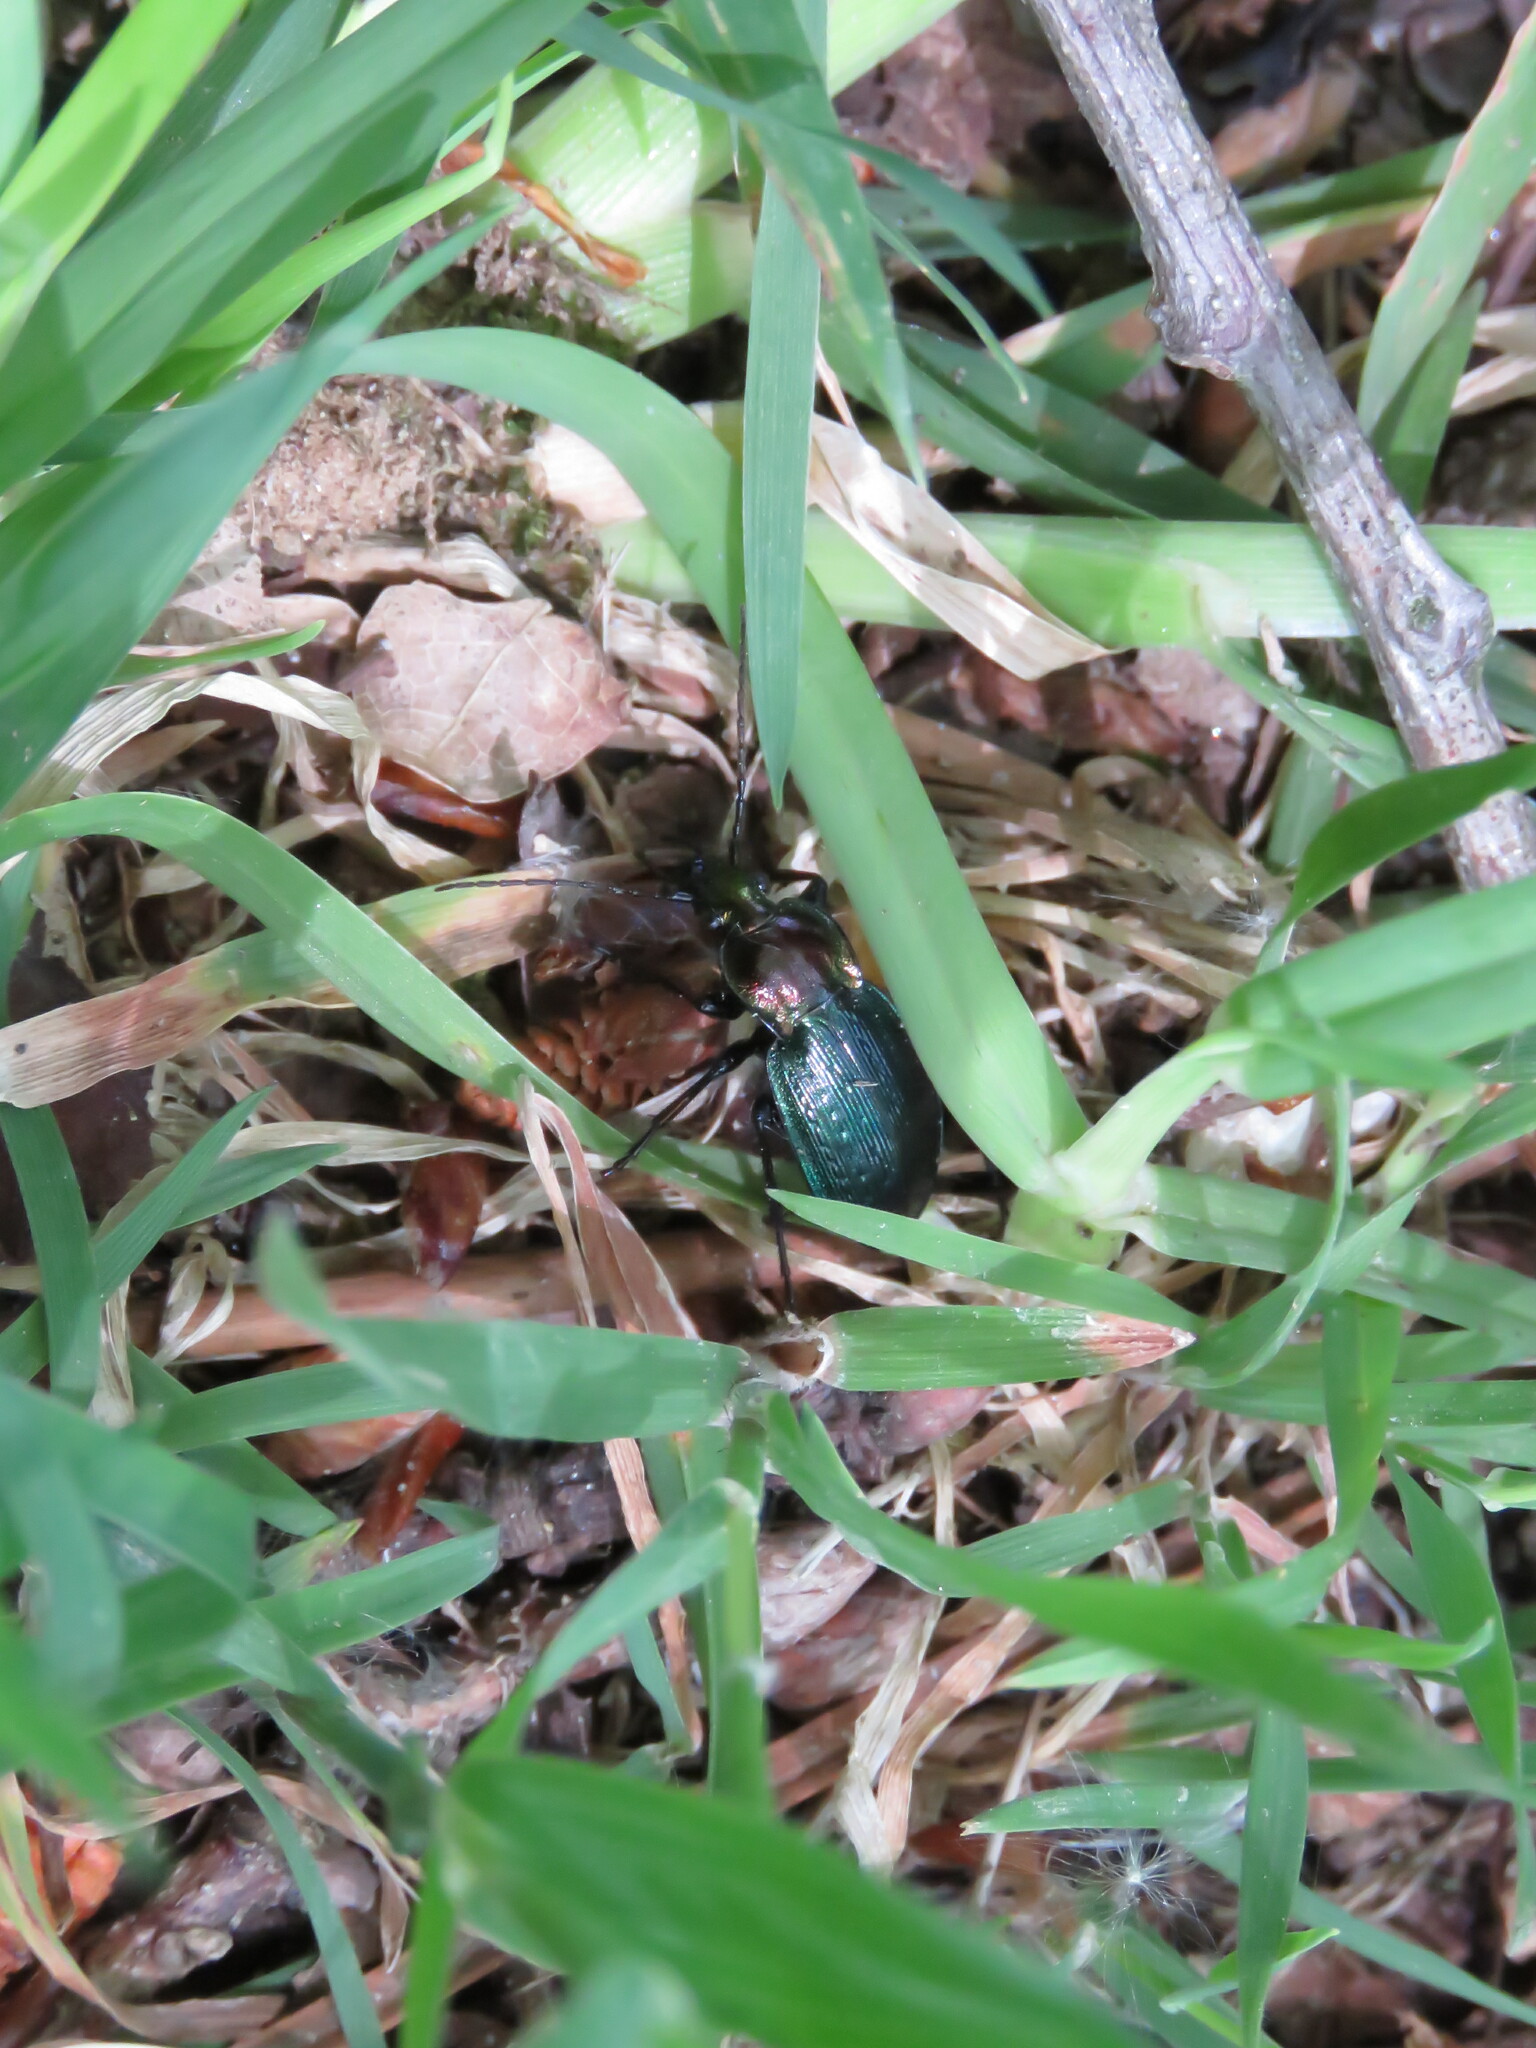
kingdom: Animalia
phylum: Arthropoda
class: Insecta
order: Coleoptera
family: Carabidae
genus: Carabus
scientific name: Carabus deyrolei
